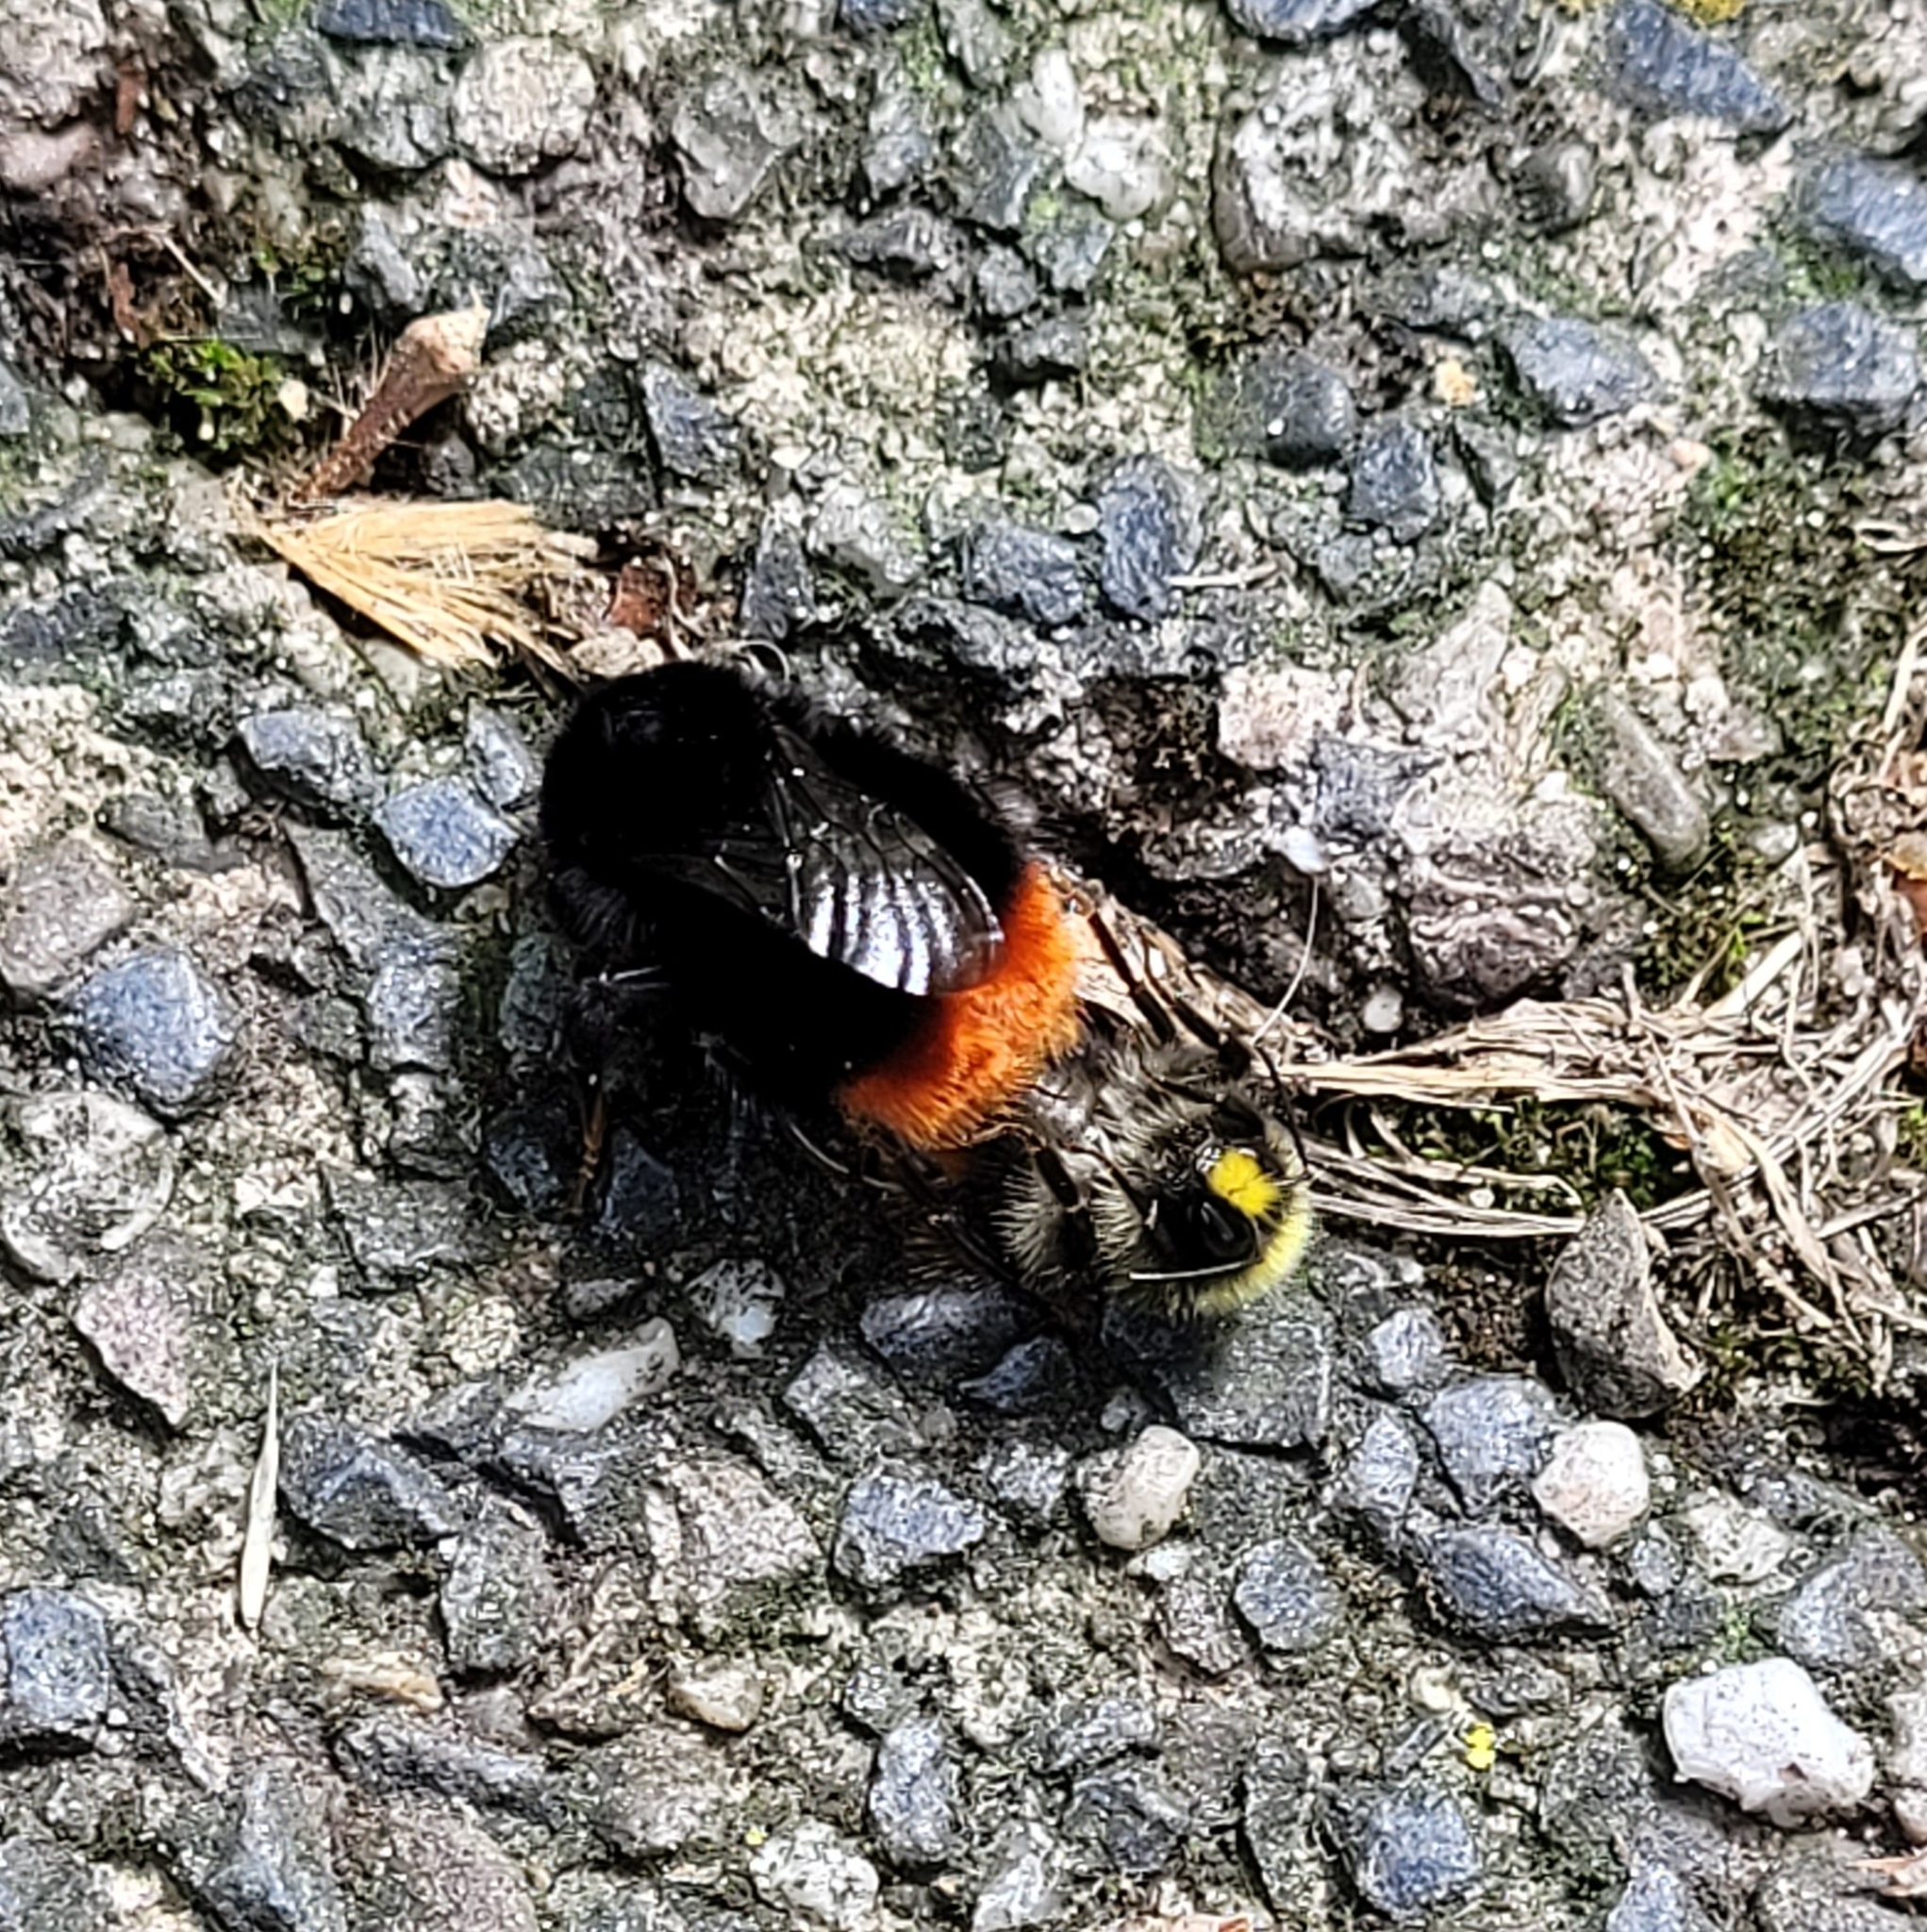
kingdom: Animalia
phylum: Arthropoda
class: Insecta
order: Hymenoptera
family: Apidae
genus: Bombus
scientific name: Bombus lapidarius
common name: Large red-tailed humble-bee
